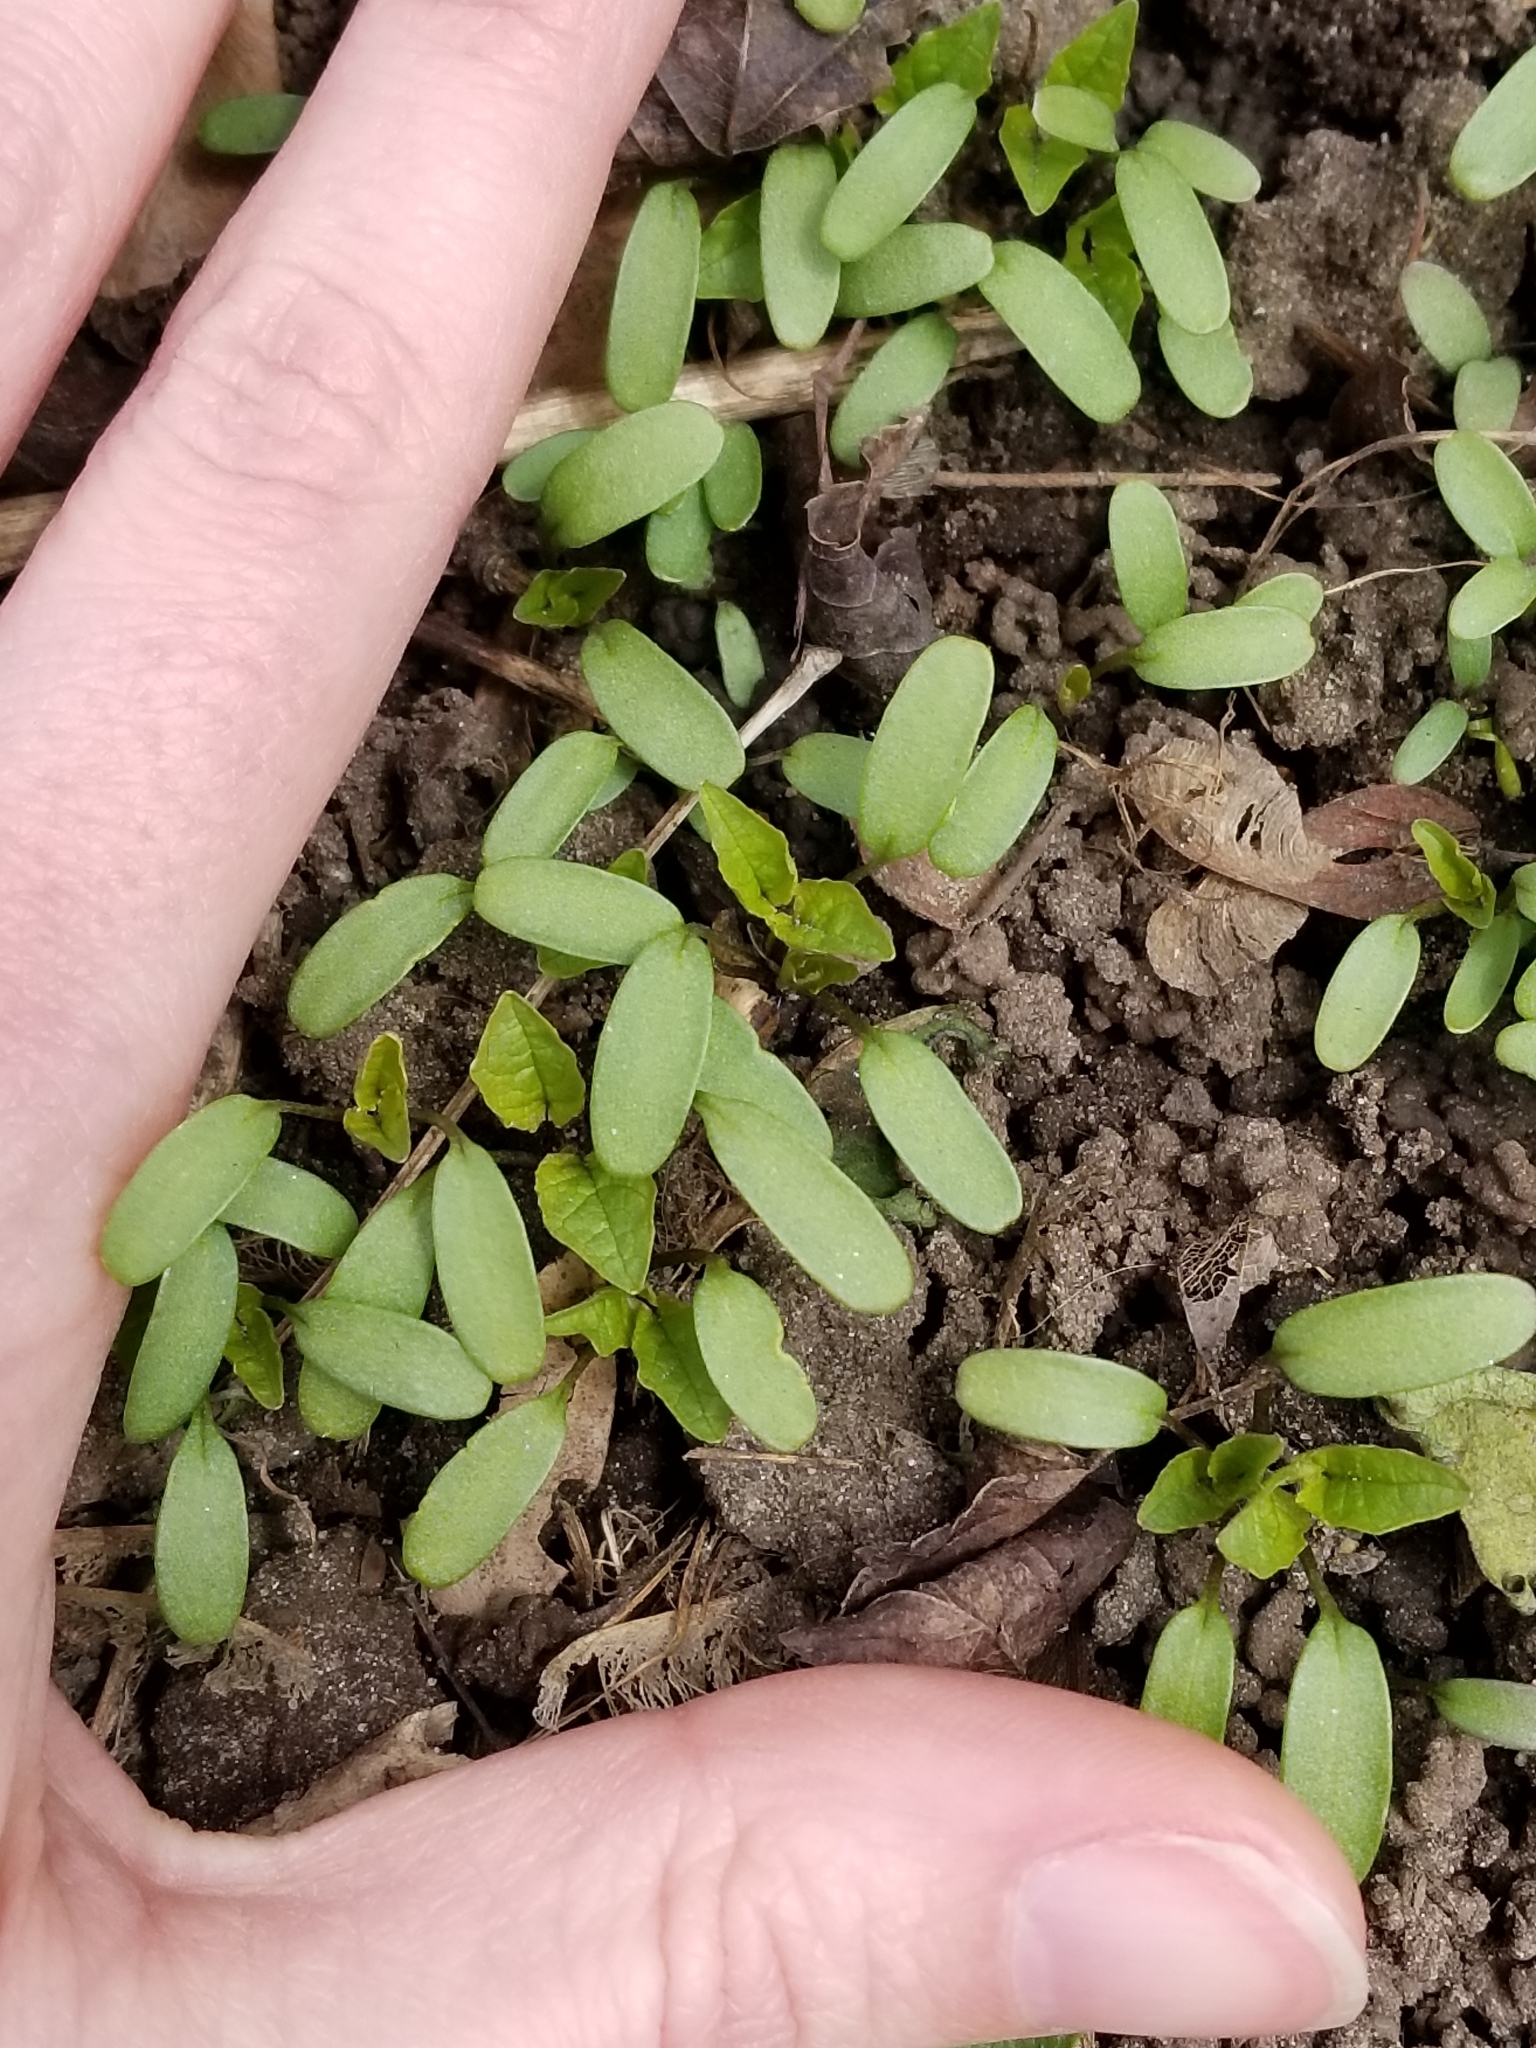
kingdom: Plantae
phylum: Tracheophyta
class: Magnoliopsida
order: Brassicales
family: Brassicaceae
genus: Alliaria
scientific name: Alliaria petiolata
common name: Garlic mustard
